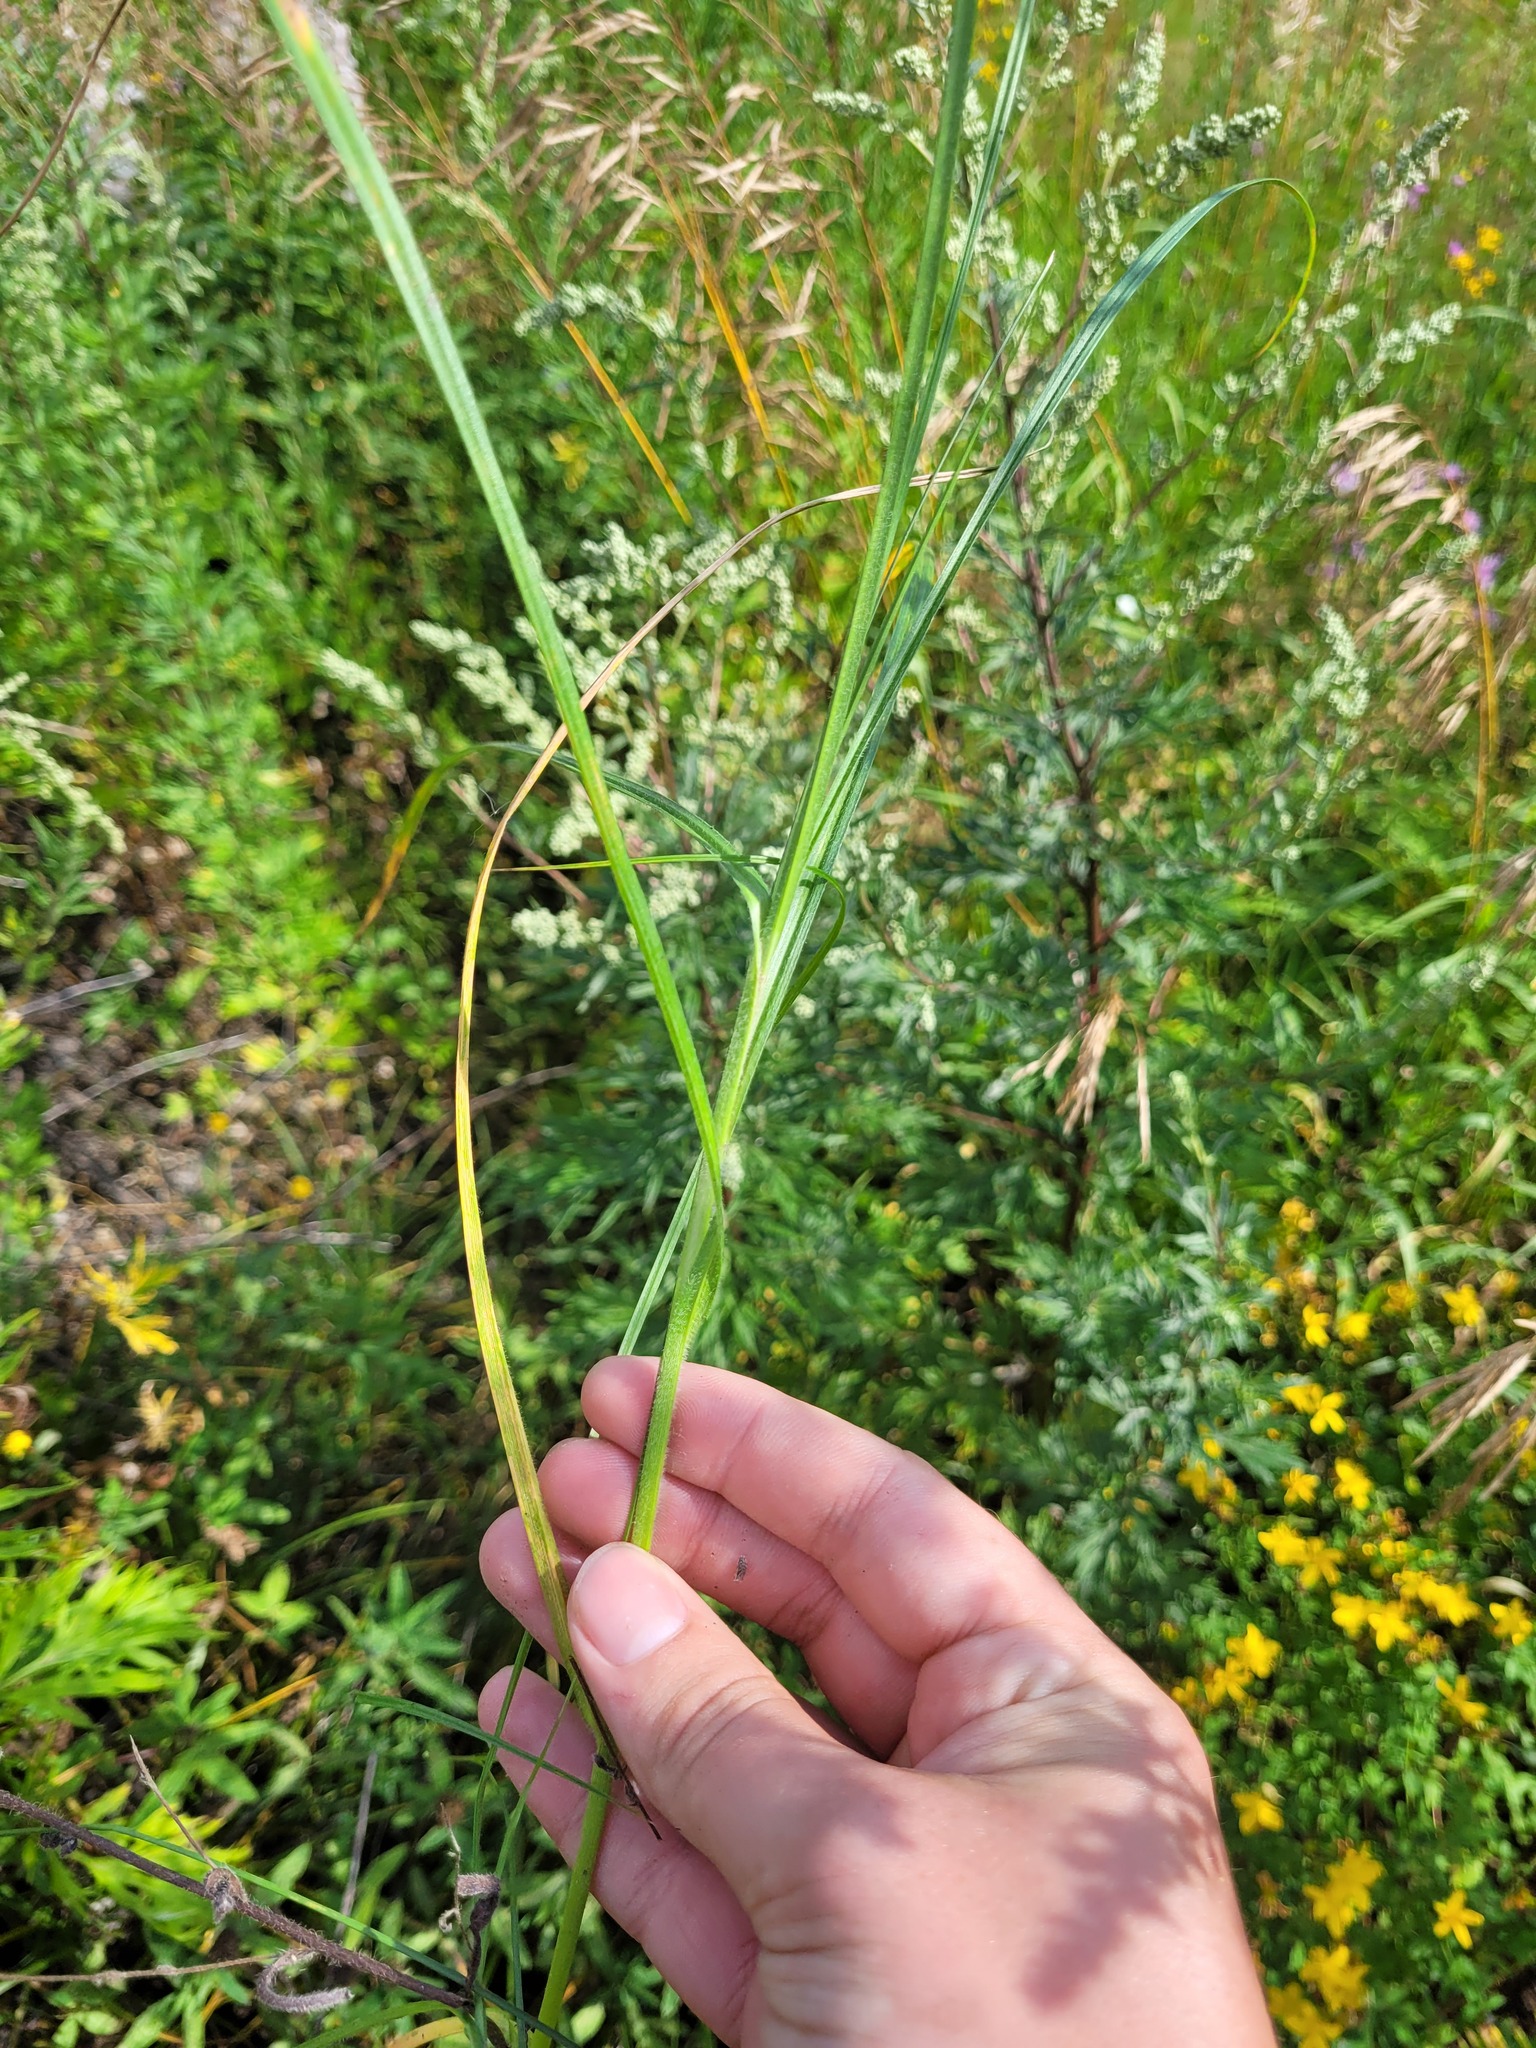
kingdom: Plantae
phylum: Tracheophyta
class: Liliopsida
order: Poales
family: Cyperaceae
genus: Carex
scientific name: Carex hirta
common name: Hairy sedge
